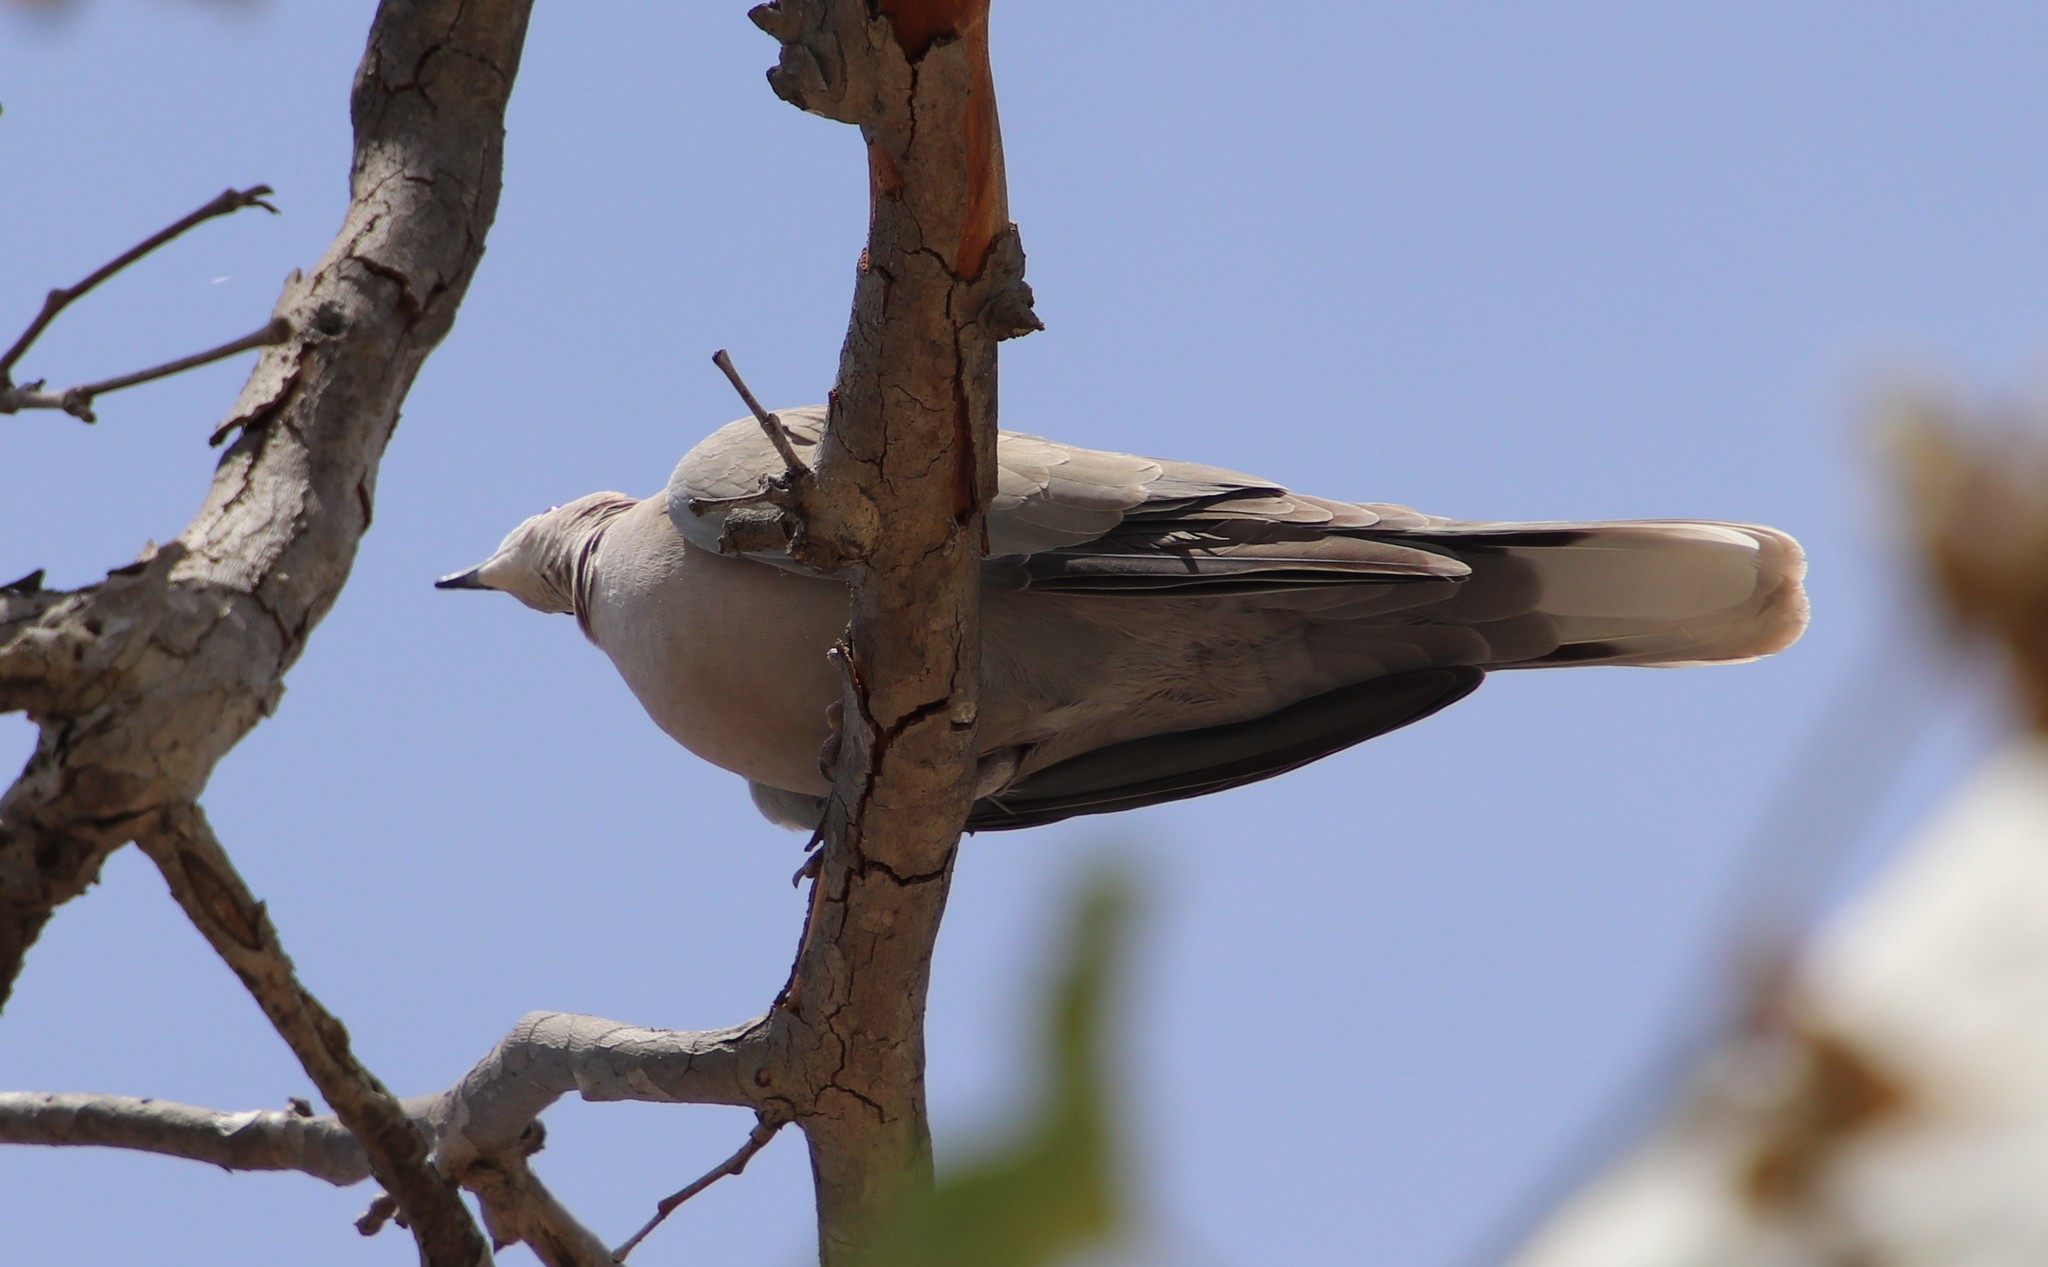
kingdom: Animalia
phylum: Chordata
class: Aves
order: Columbiformes
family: Columbidae
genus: Streptopelia
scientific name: Streptopelia decaocto
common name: Eurasian collared dove
